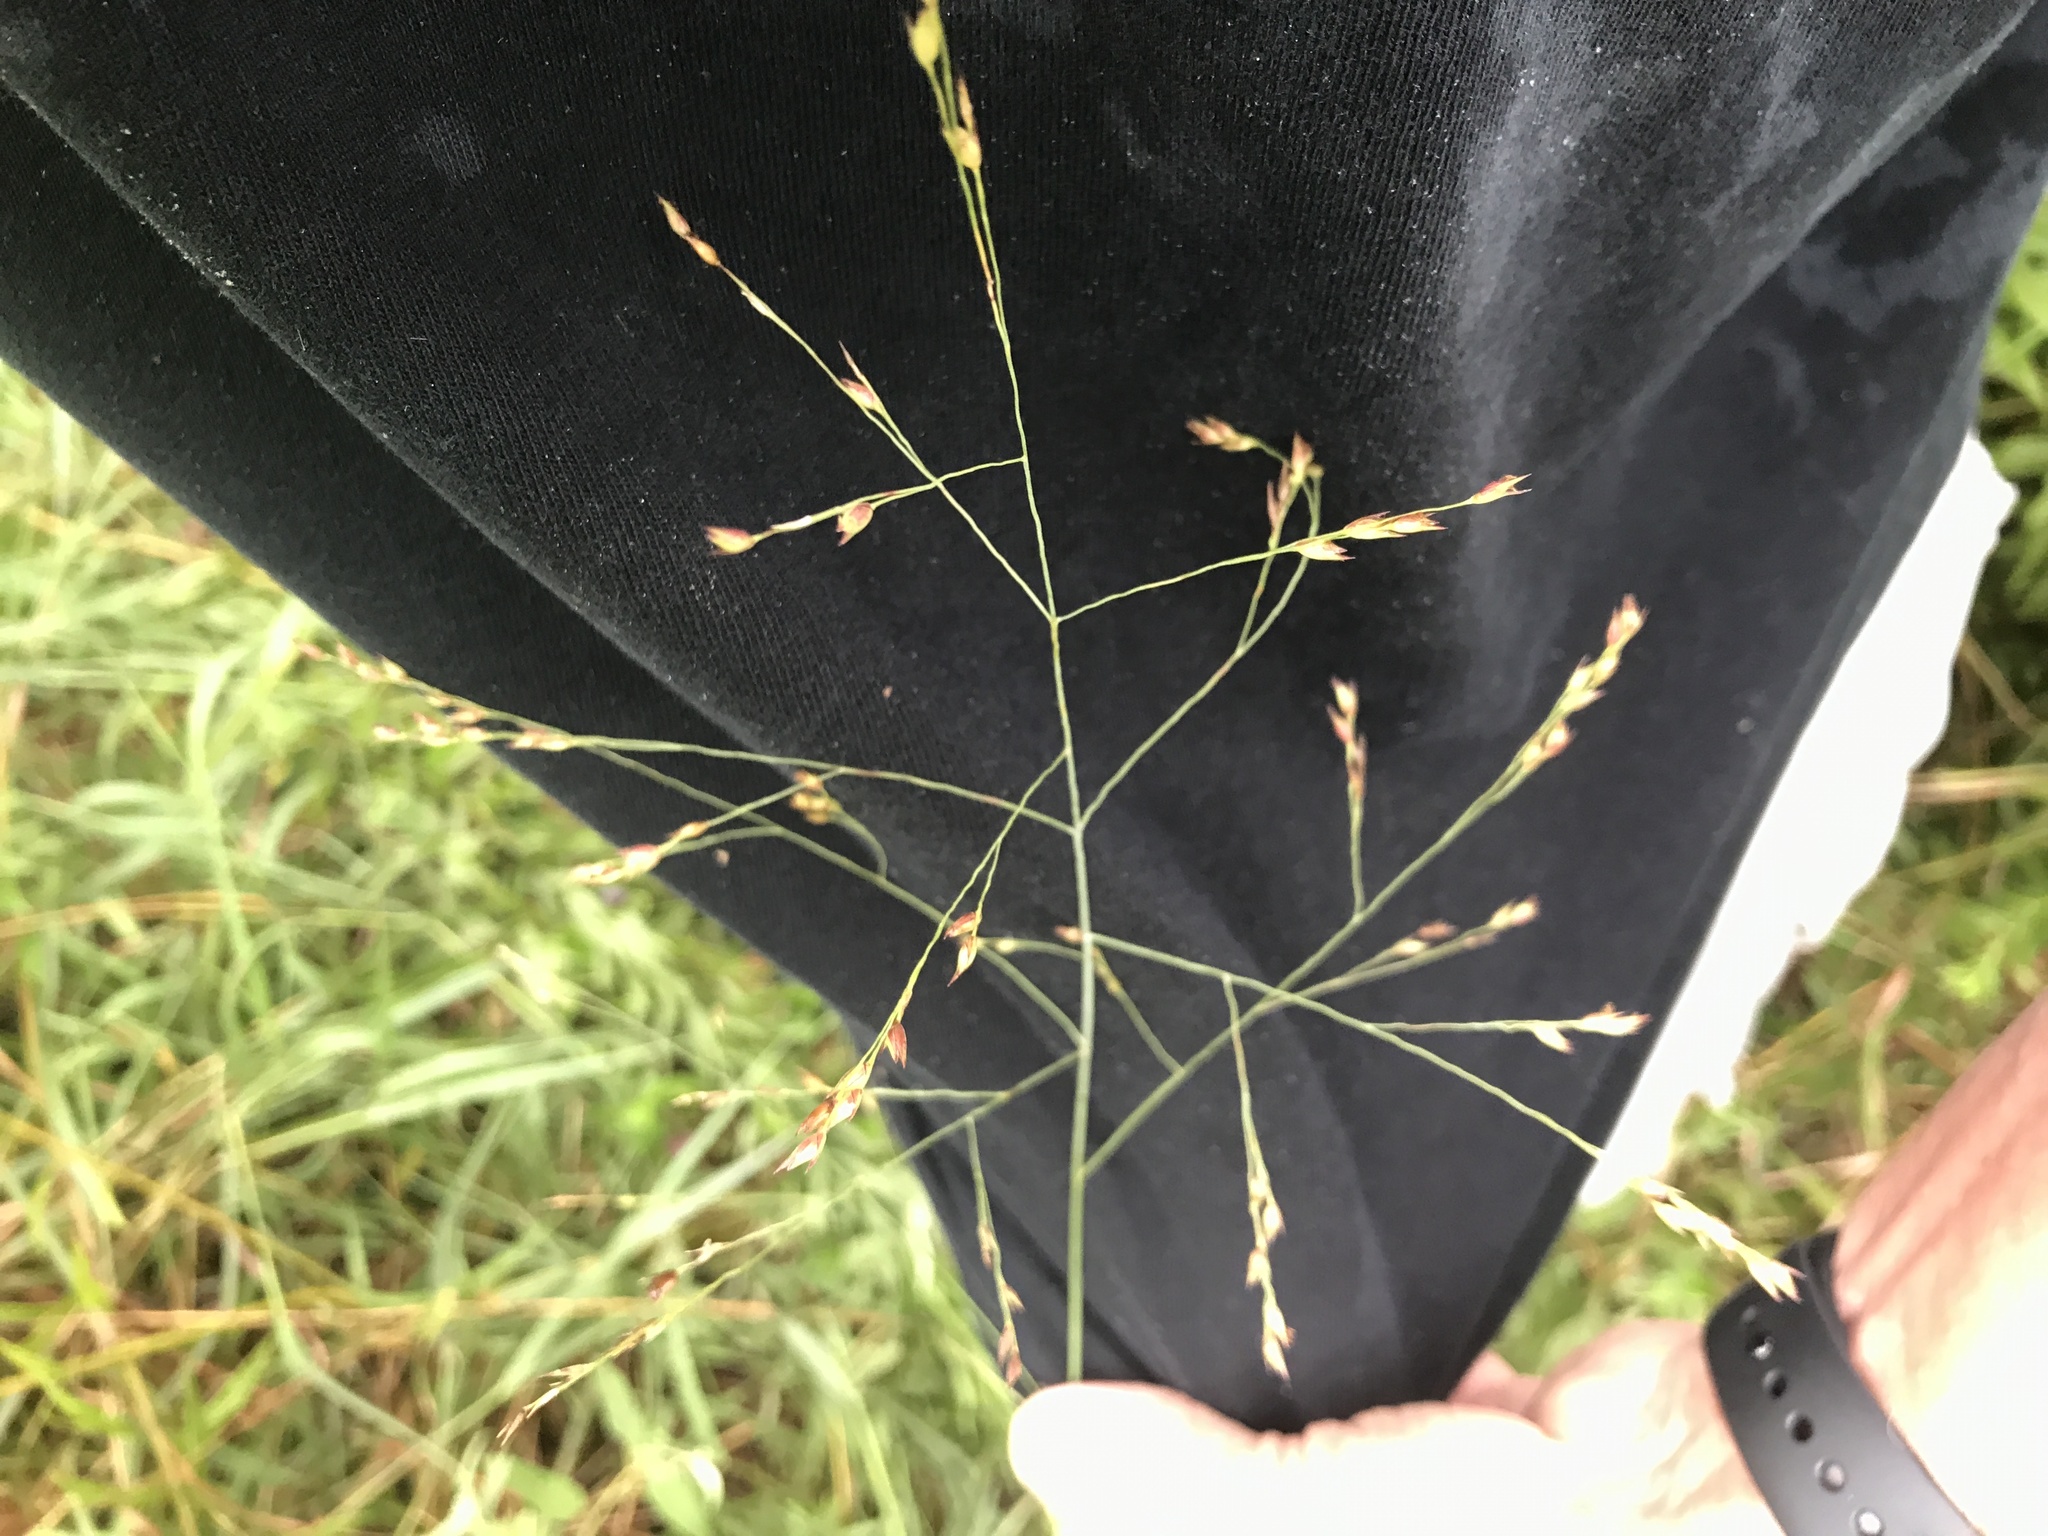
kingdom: Plantae
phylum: Tracheophyta
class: Liliopsida
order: Poales
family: Poaceae
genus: Panicum
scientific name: Panicum virgatum
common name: Switchgrass
